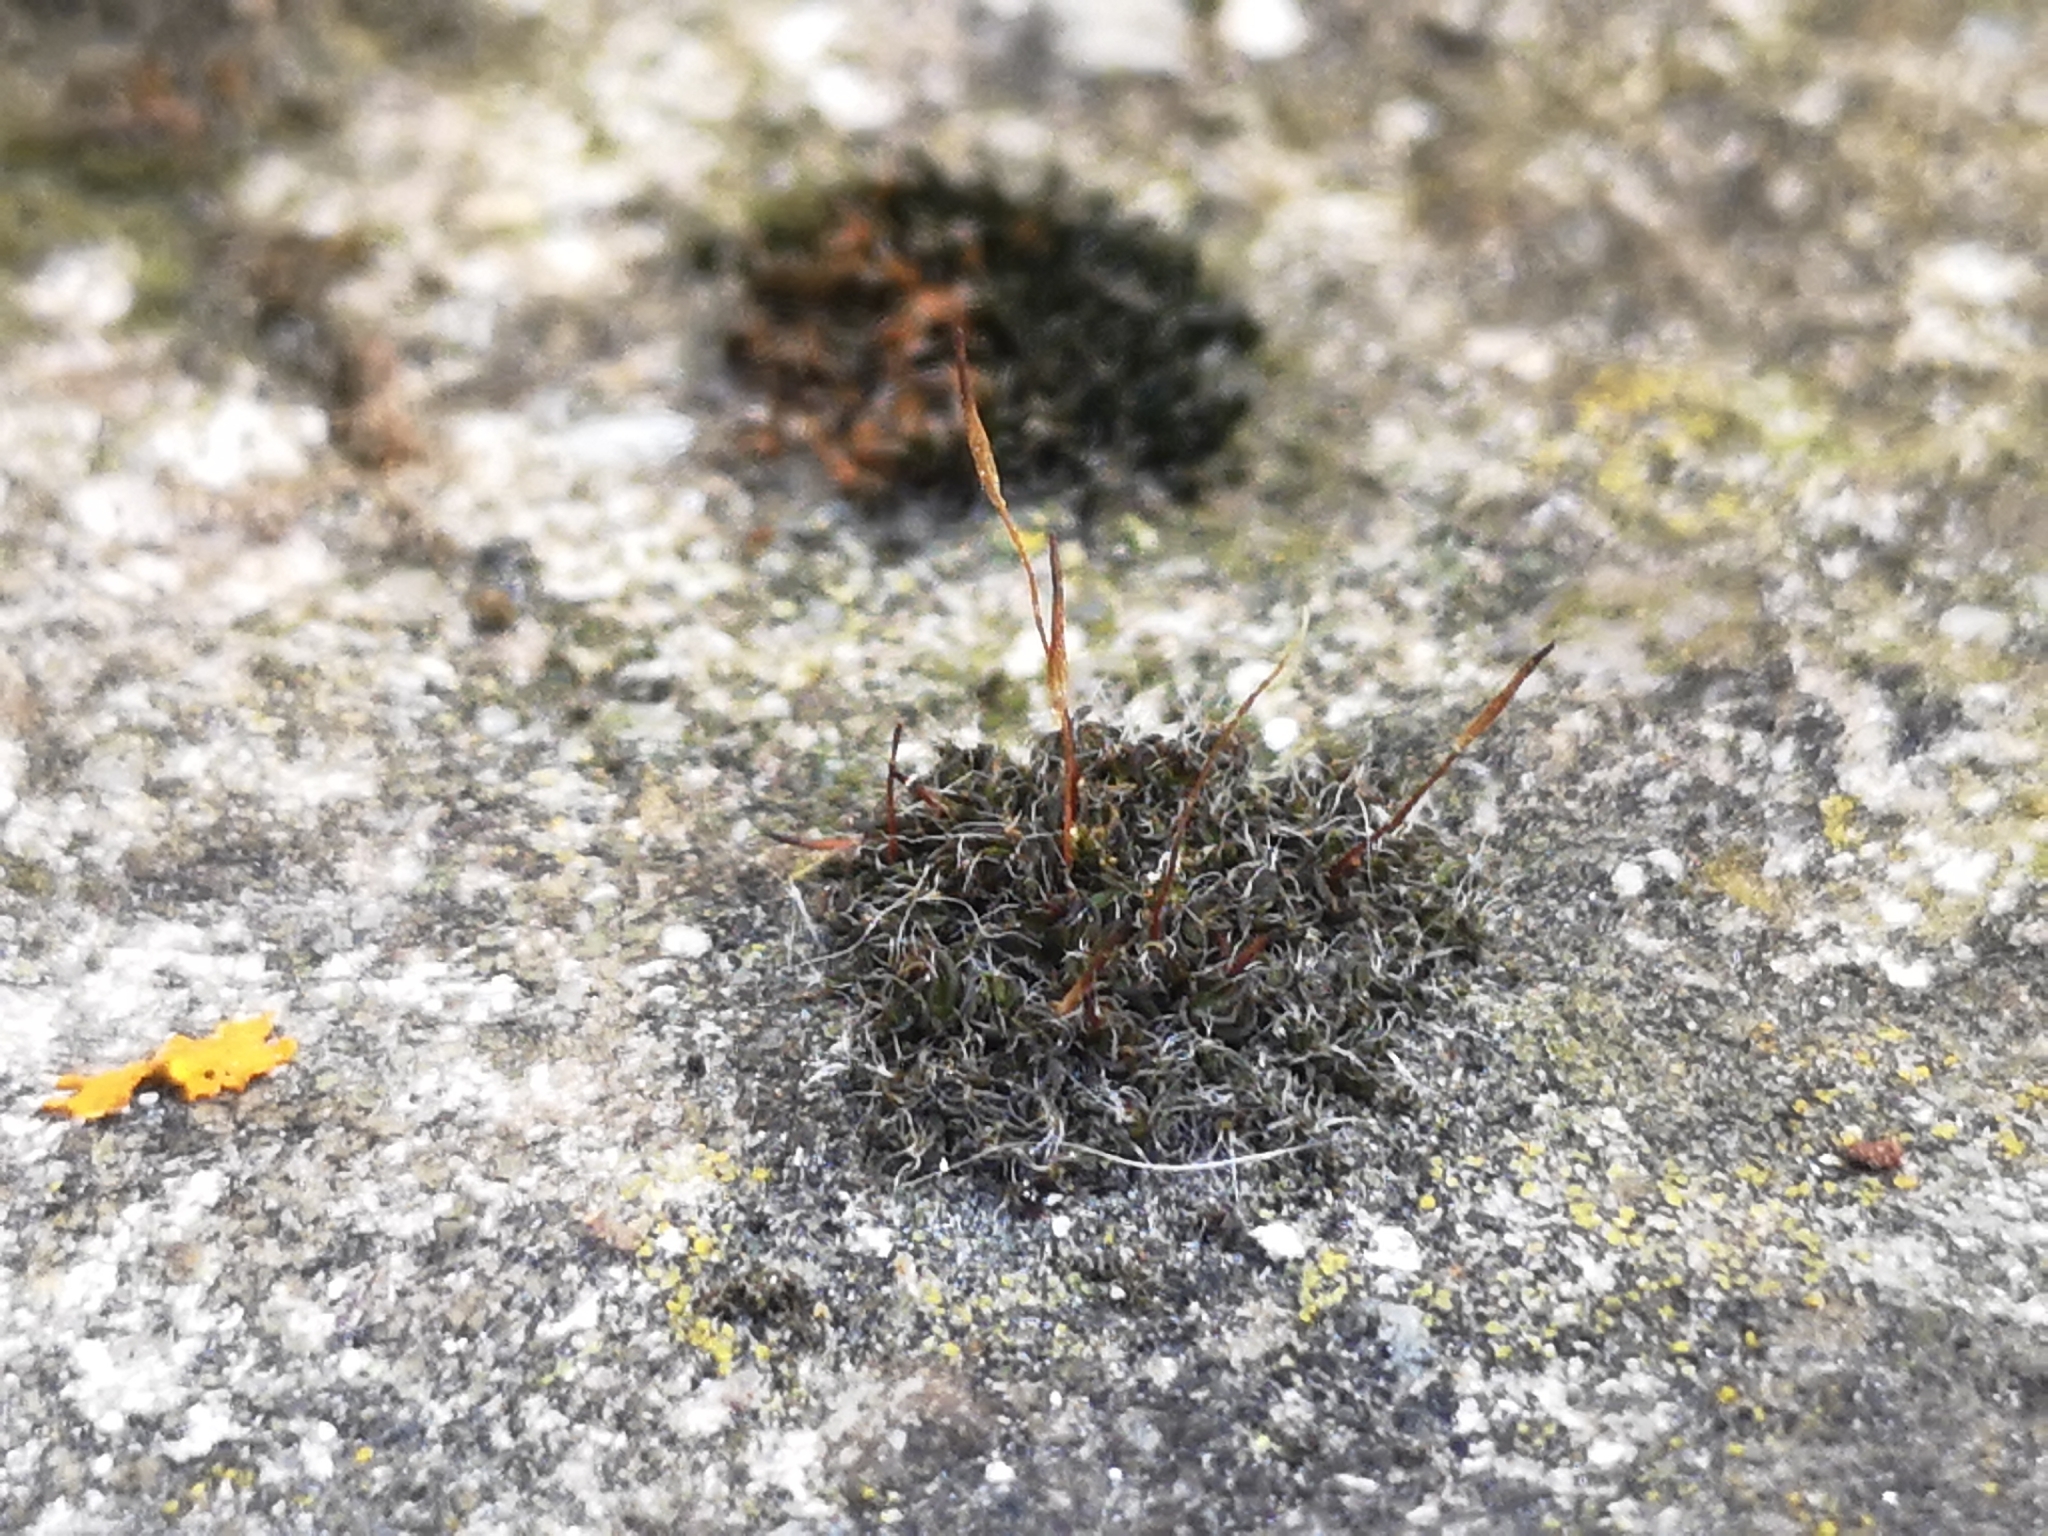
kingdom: Plantae
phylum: Bryophyta
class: Bryopsida
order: Pottiales
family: Pottiaceae
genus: Tortula
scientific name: Tortula muralis
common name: Wall screw-moss
